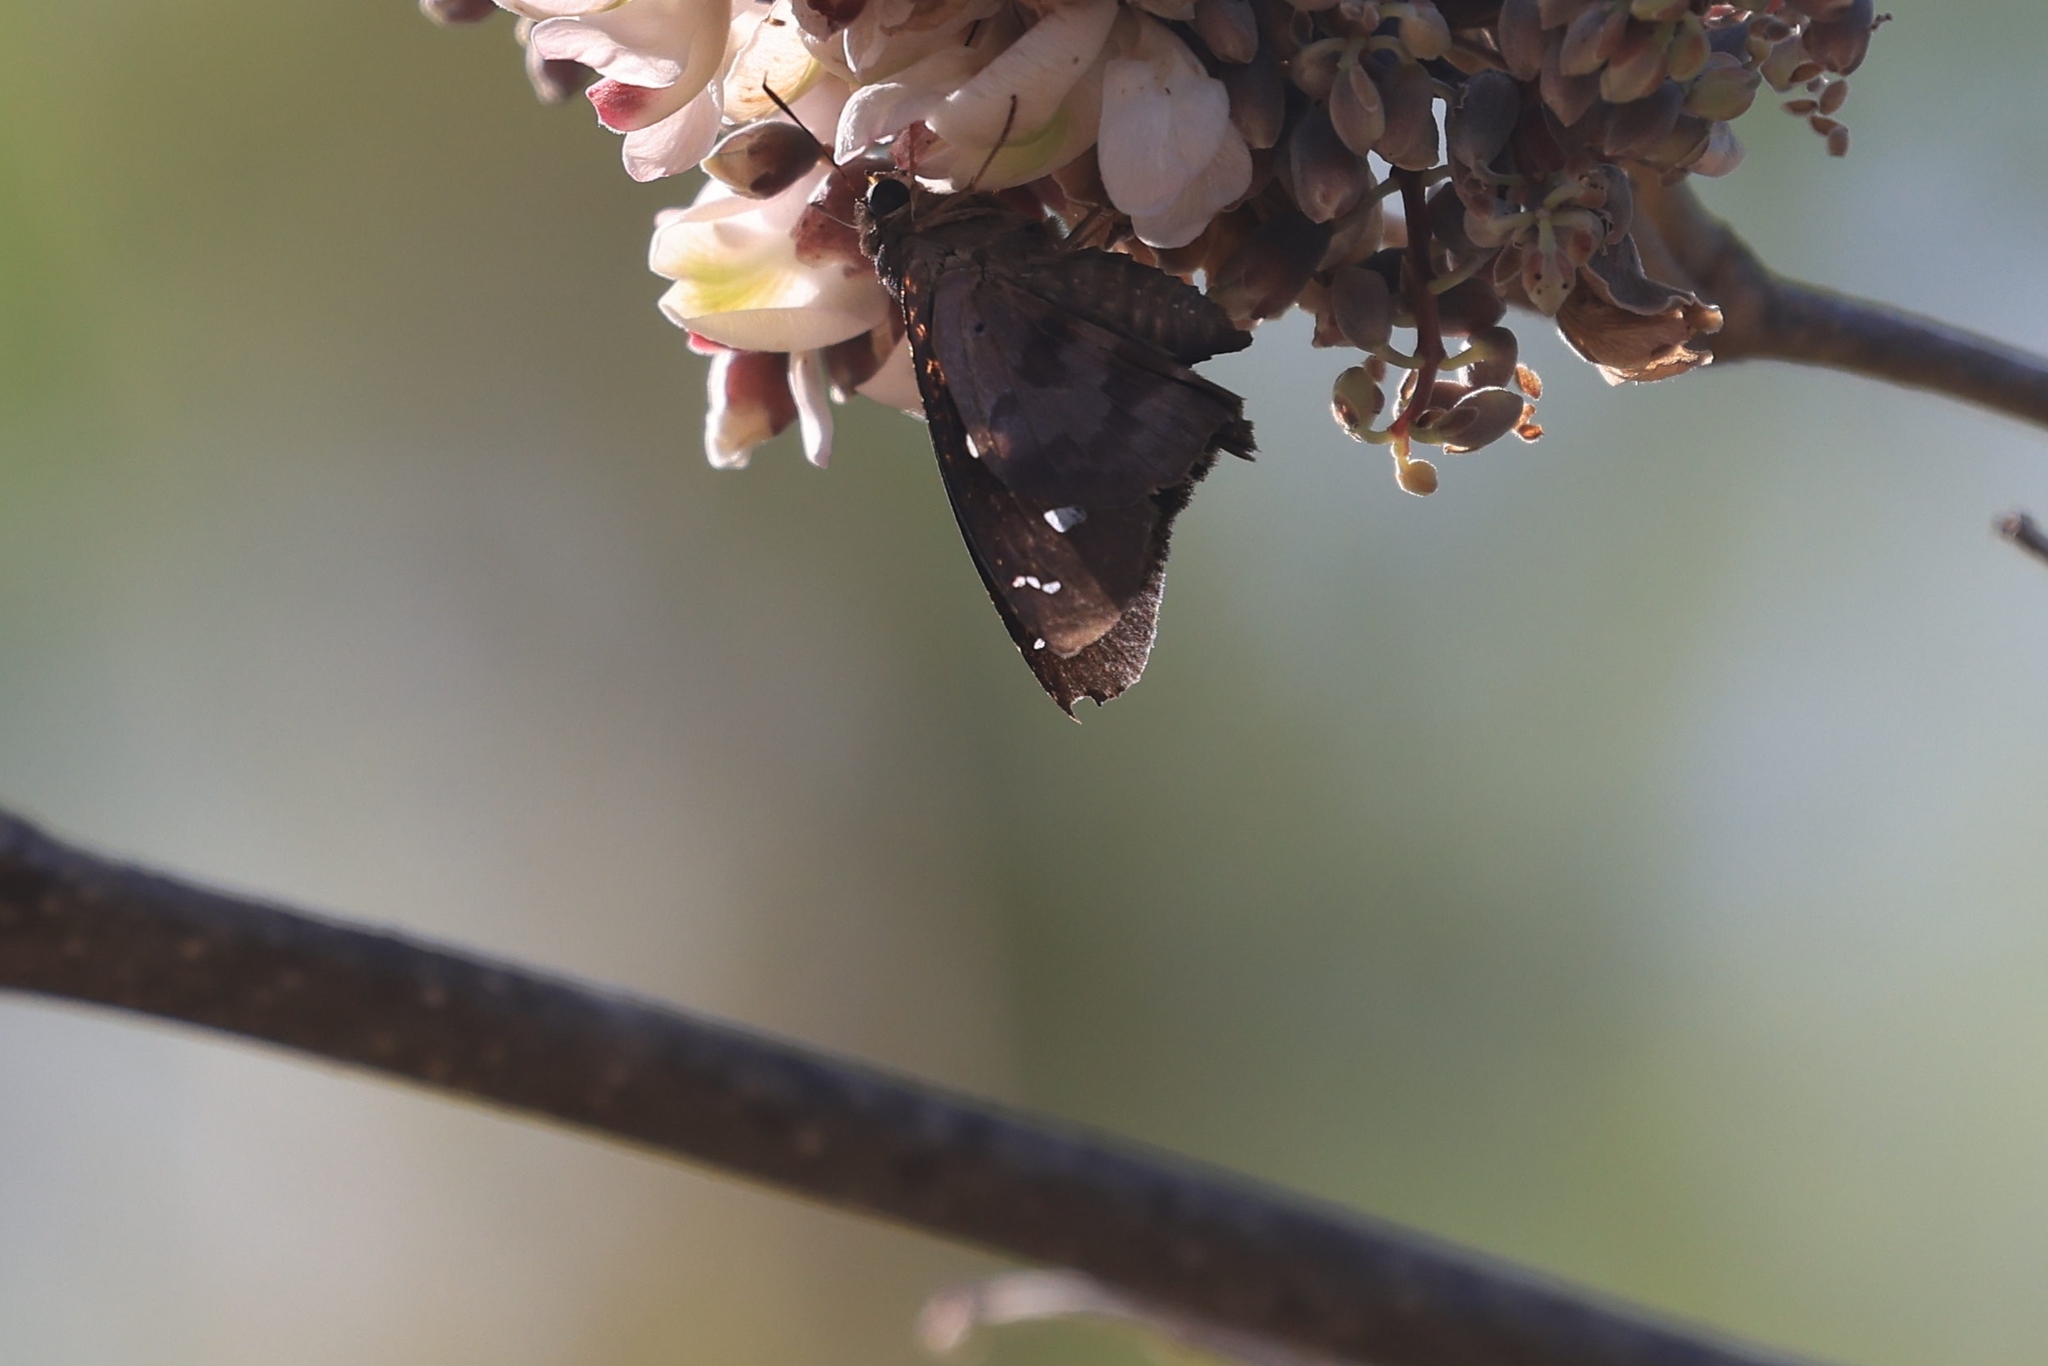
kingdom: Animalia
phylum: Arthropoda
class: Insecta
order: Lepidoptera
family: Hesperiidae
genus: Polygonus
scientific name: Polygonus leo
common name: Hammoch skipper
